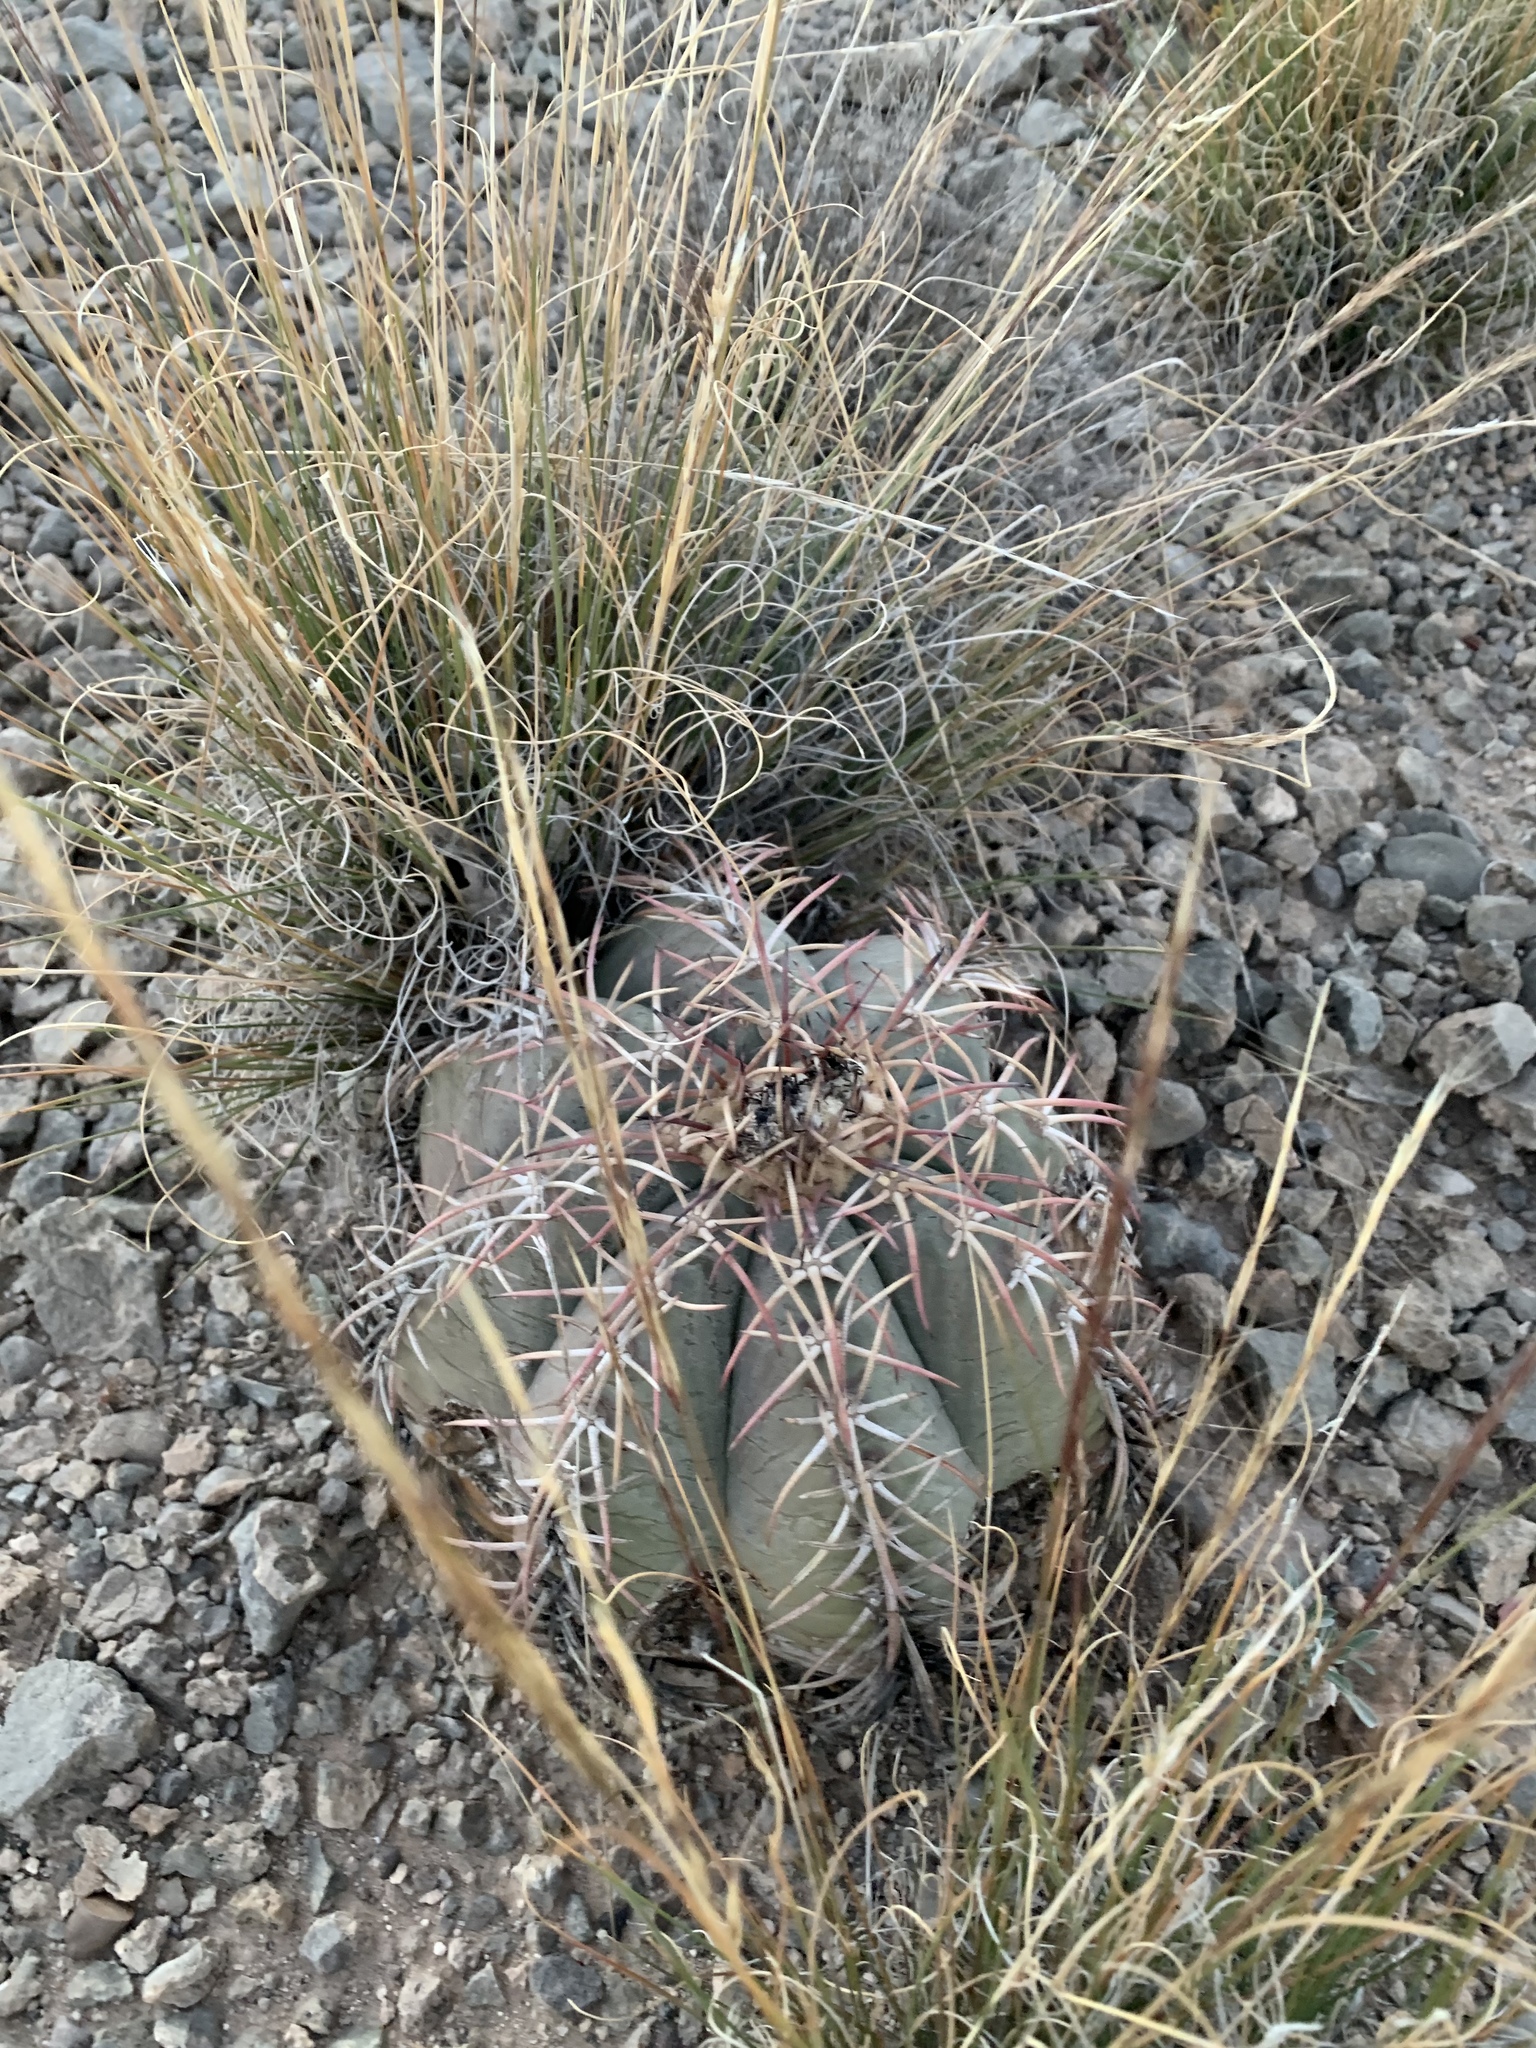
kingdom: Plantae
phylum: Tracheophyta
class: Magnoliopsida
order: Caryophyllales
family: Cactaceae
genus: Echinocactus
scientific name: Echinocactus horizonthalonius
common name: Devilshead
